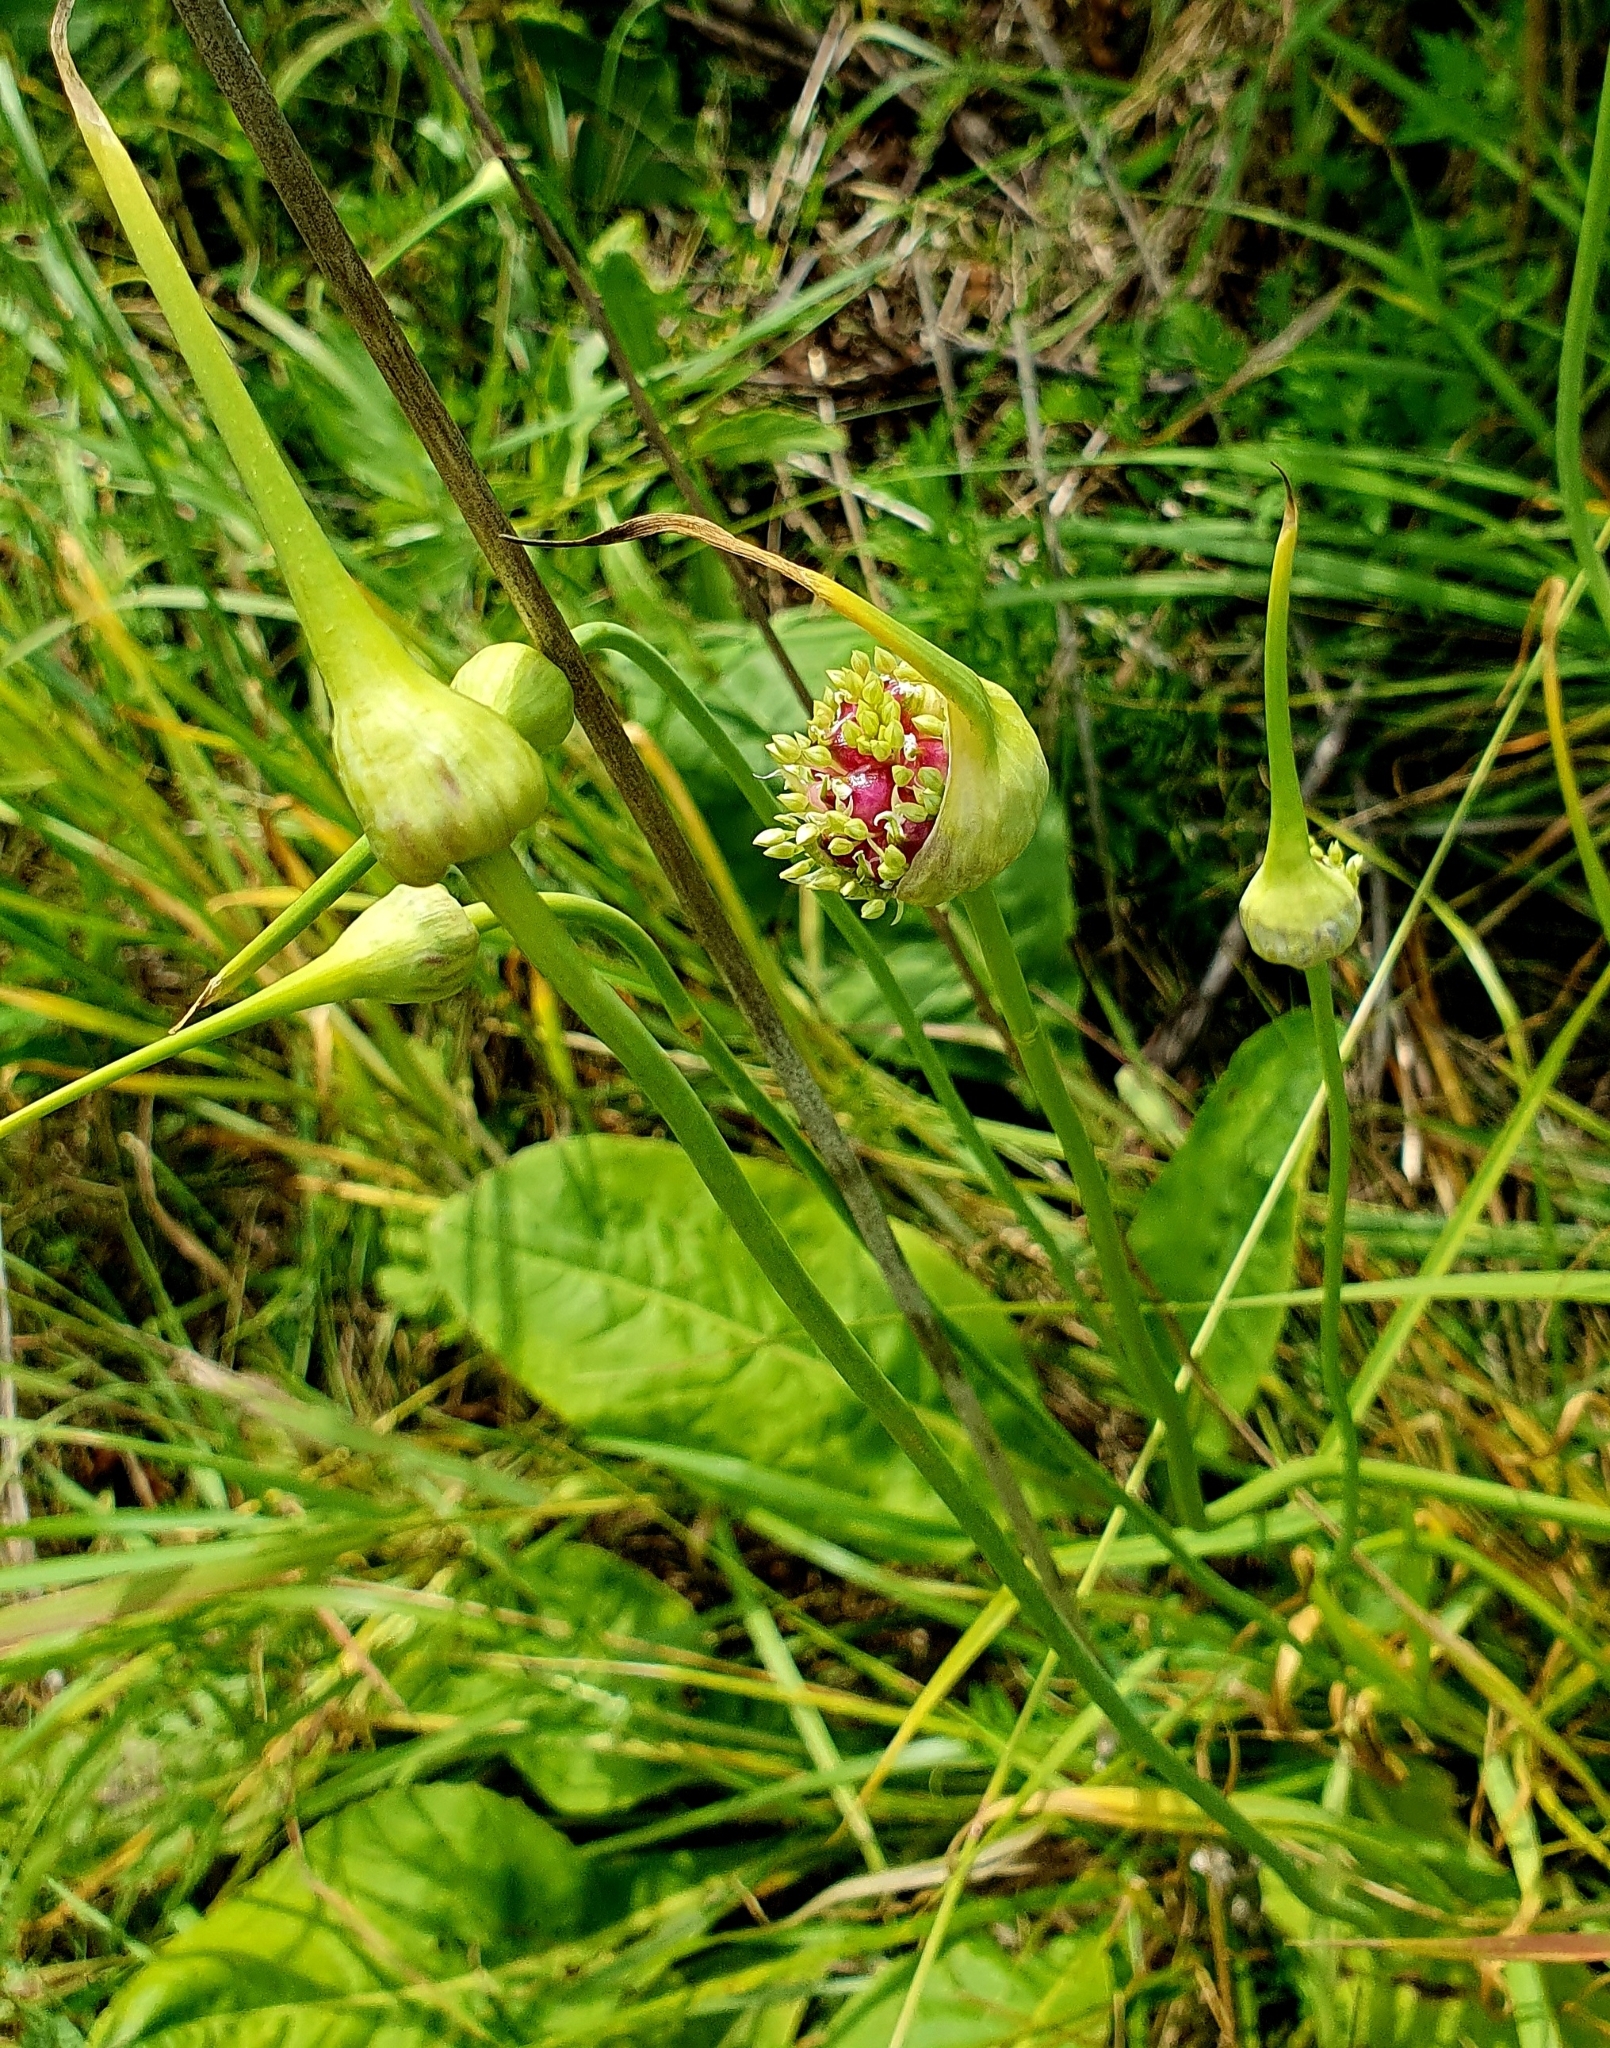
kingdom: Plantae
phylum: Tracheophyta
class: Liliopsida
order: Asparagales
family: Amaryllidaceae
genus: Allium
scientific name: Allium sativum
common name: Garlic
